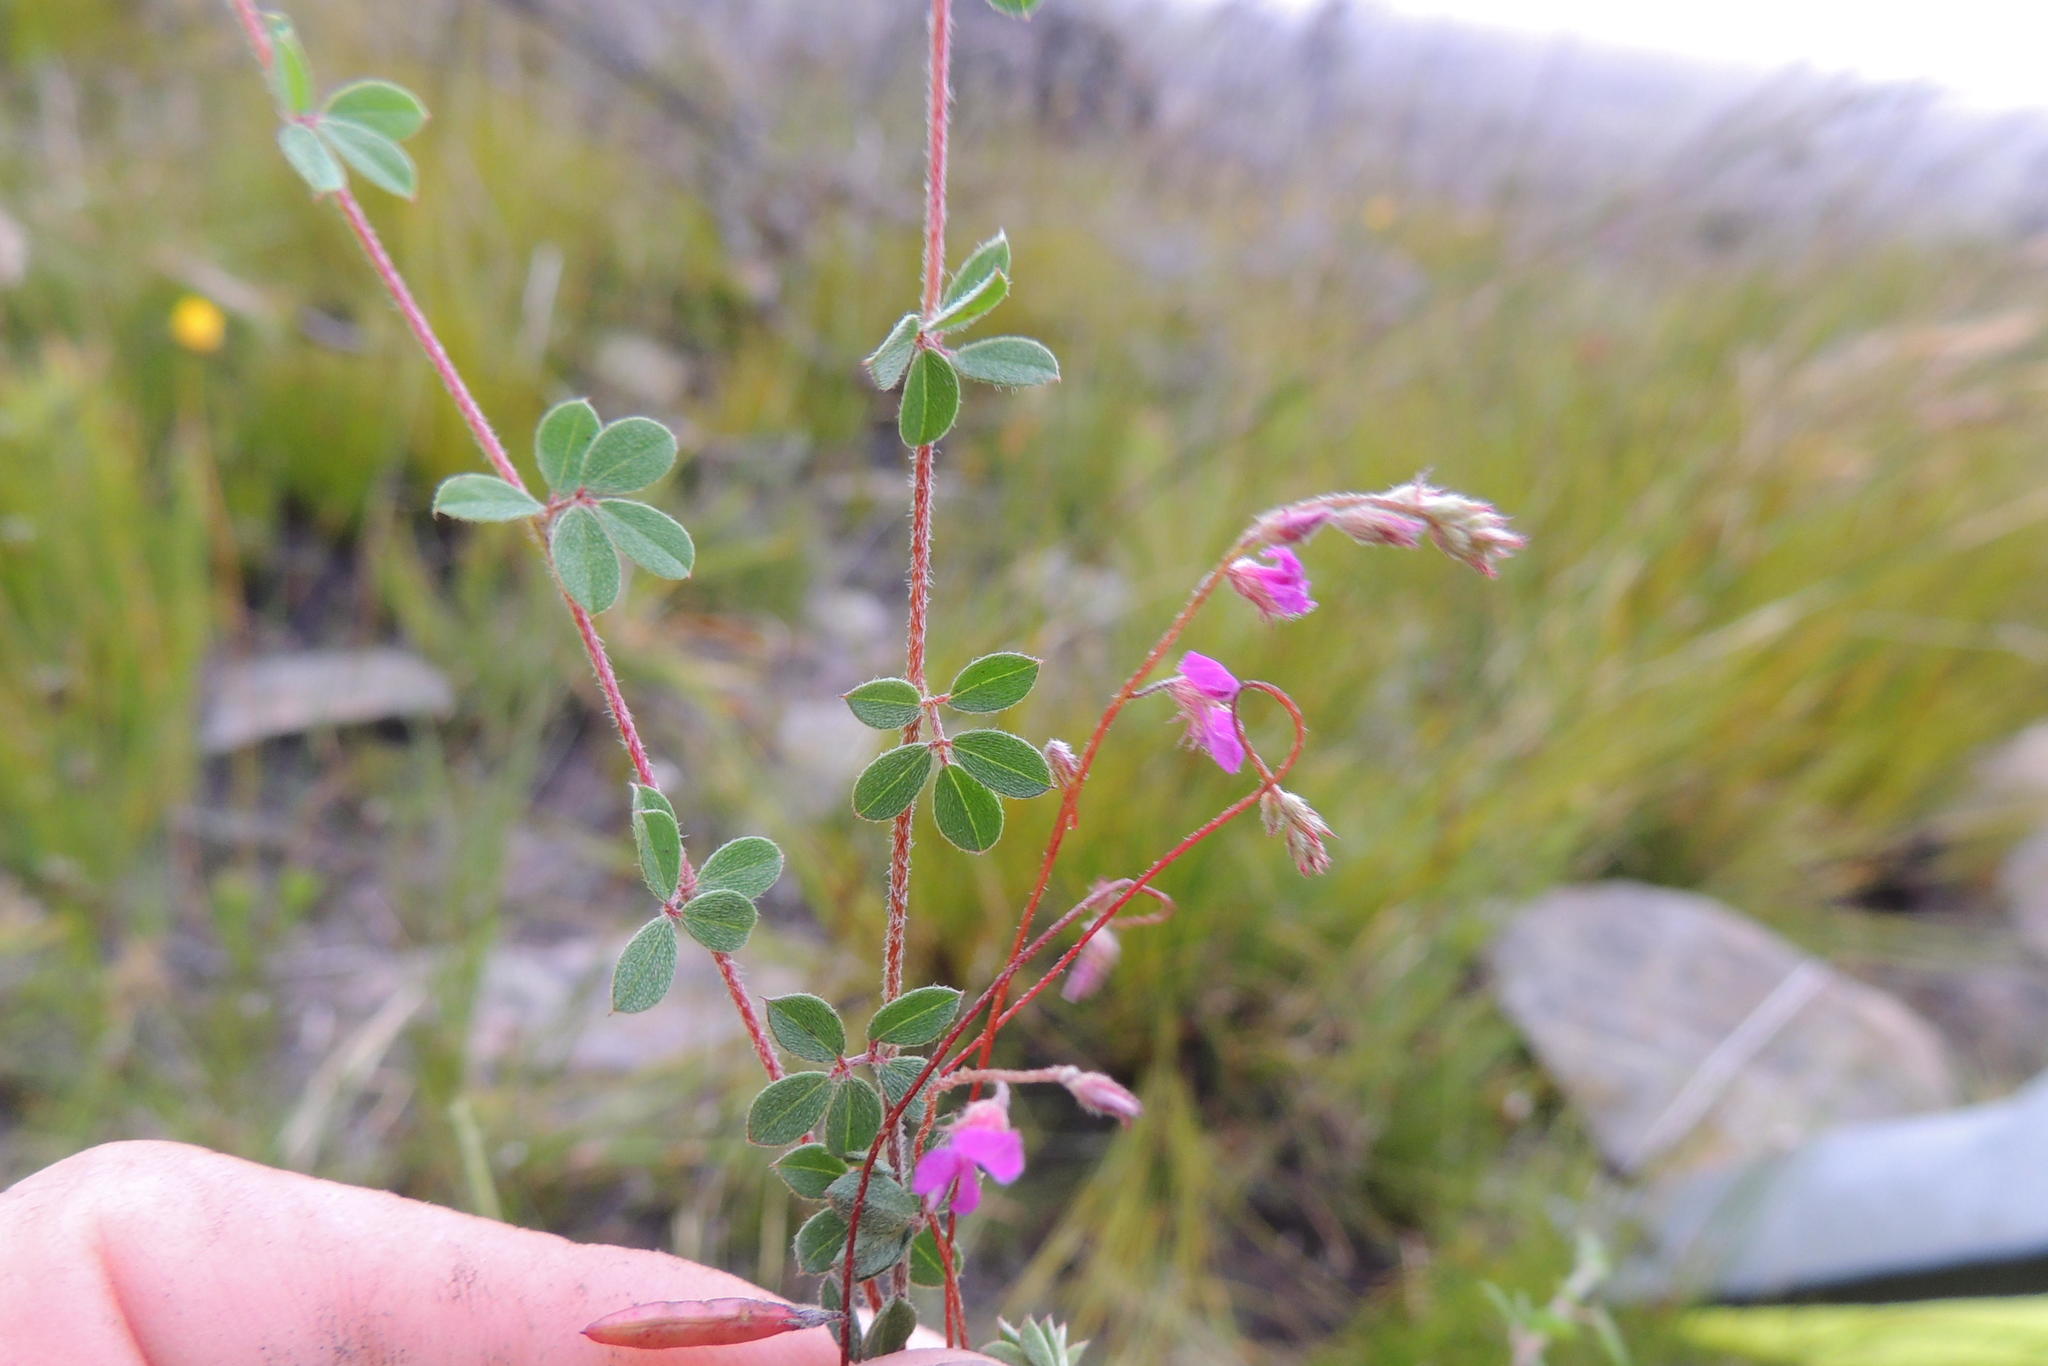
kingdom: Plantae
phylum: Tracheophyta
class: Magnoliopsida
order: Fabales
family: Fabaceae
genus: Indigofera
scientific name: Indigofera alopecuroides
